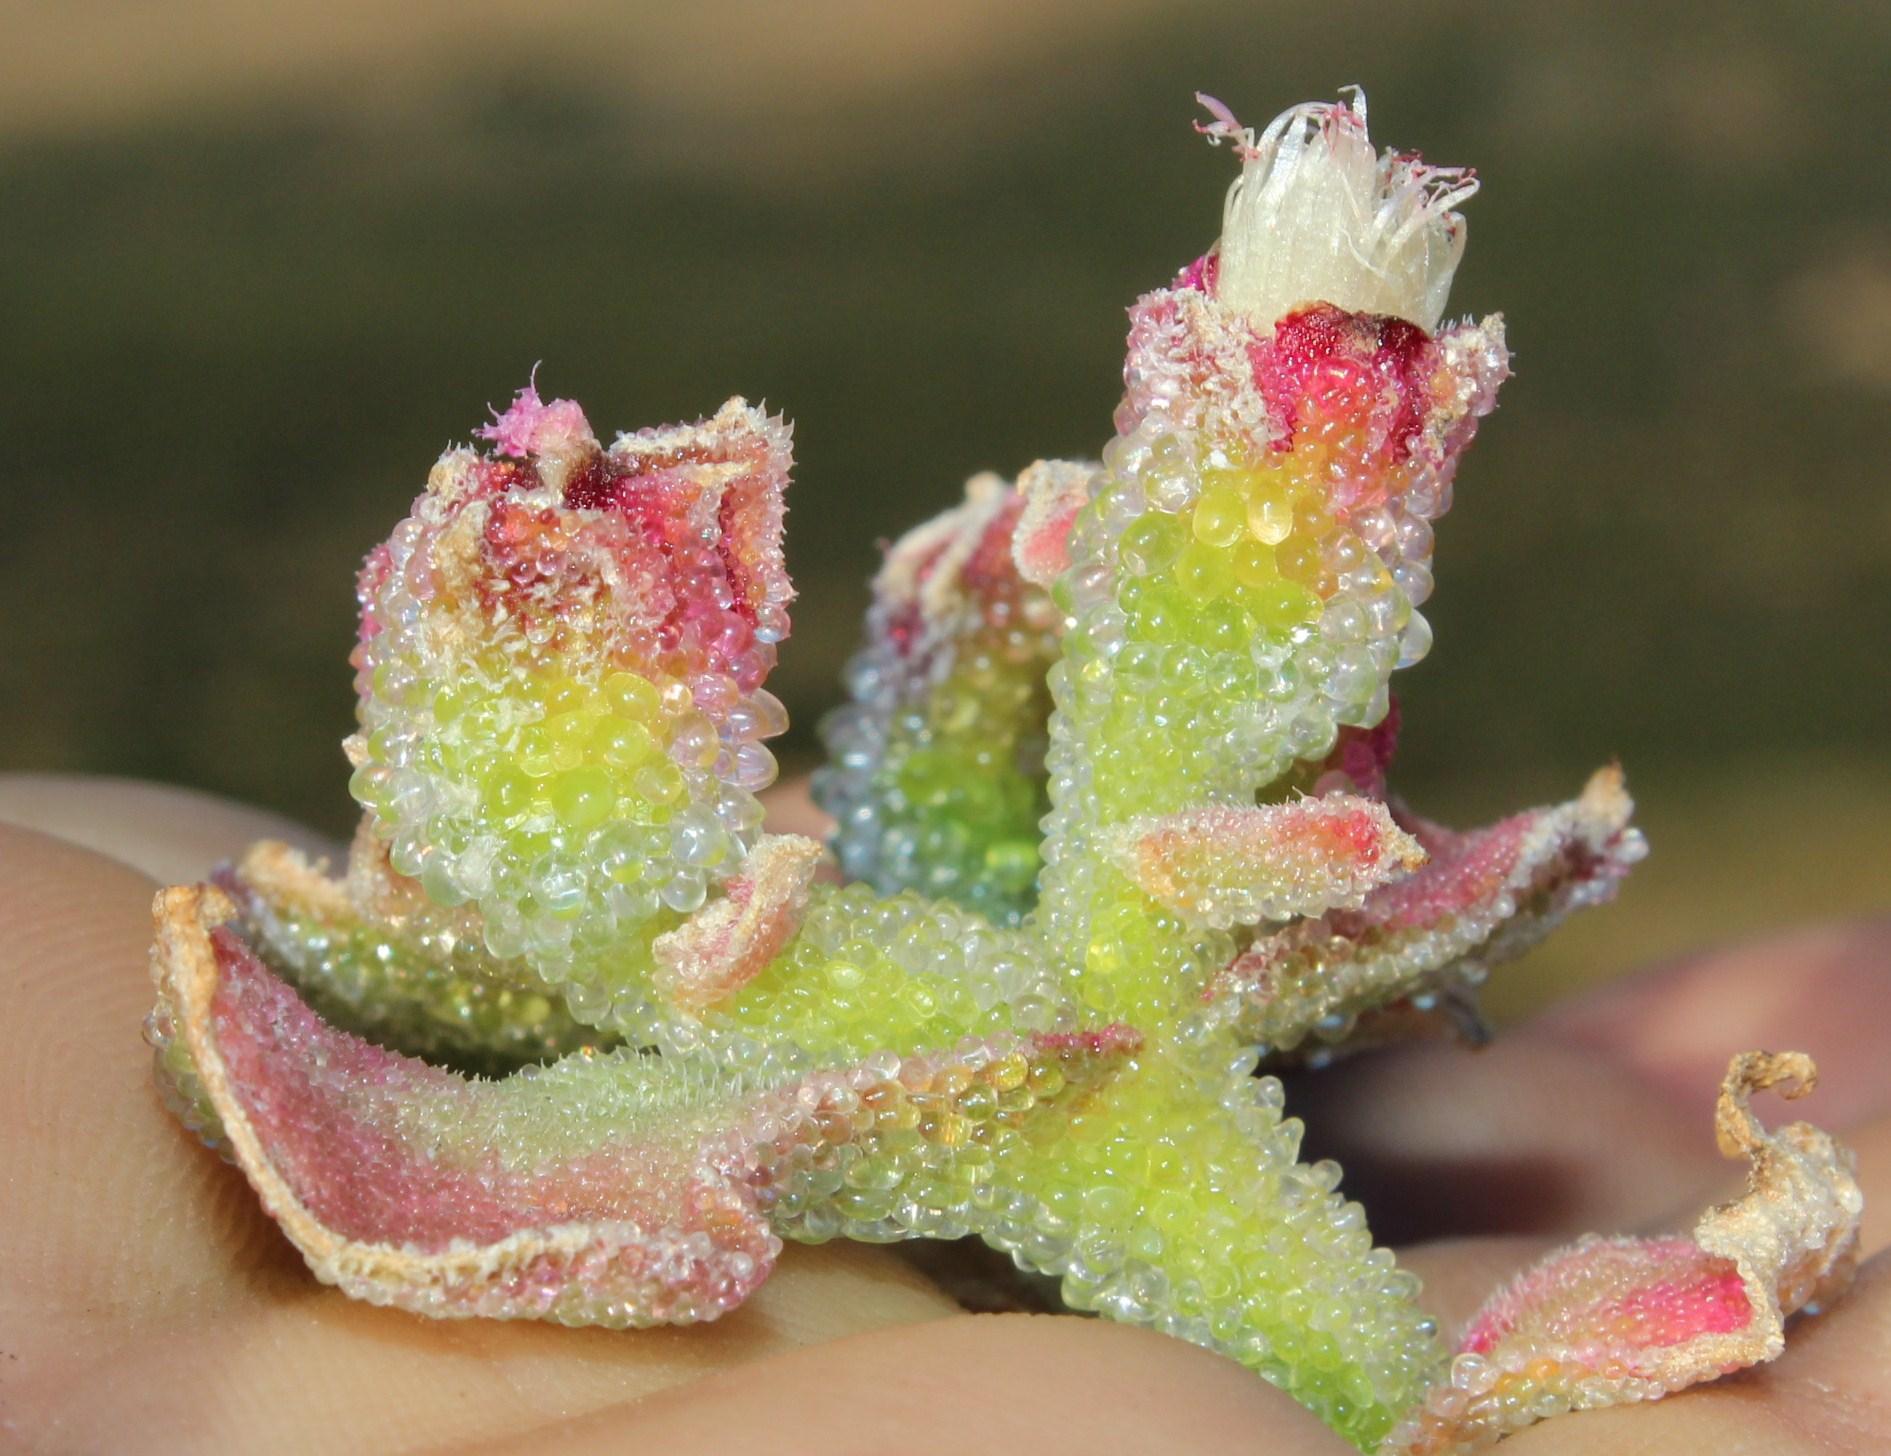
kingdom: Plantae
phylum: Tracheophyta
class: Magnoliopsida
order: Caryophyllales
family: Aizoaceae
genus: Mesembryanthemum
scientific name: Mesembryanthemum crystallinum
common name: Common iceplant
